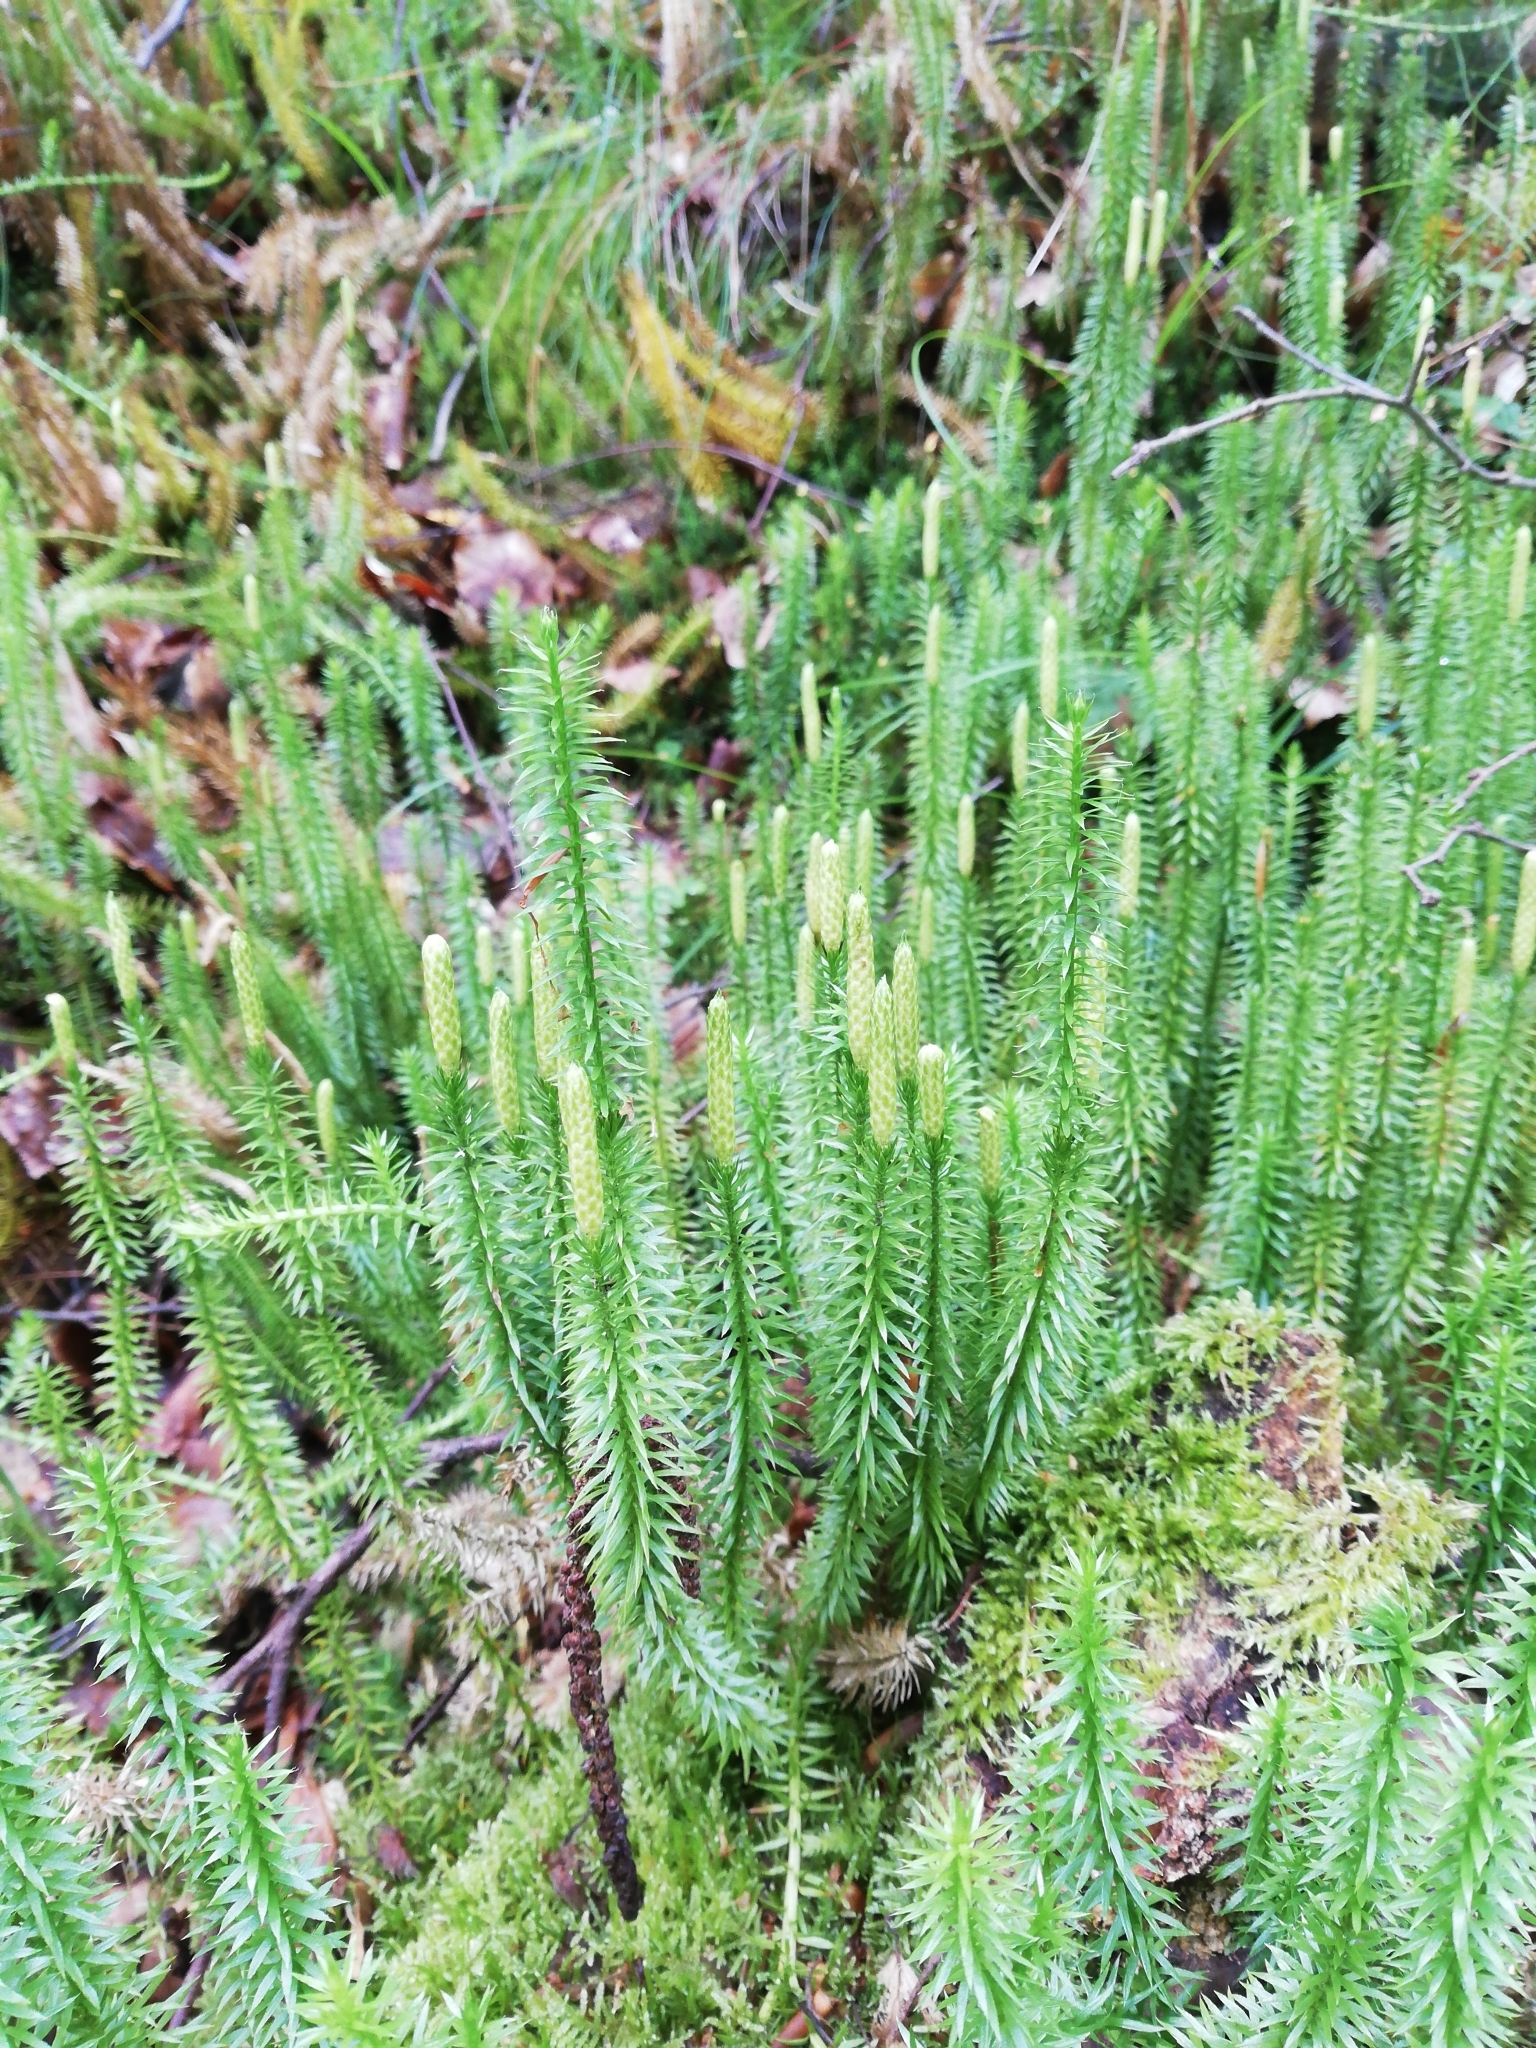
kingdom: Plantae
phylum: Tracheophyta
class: Lycopodiopsida
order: Lycopodiales
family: Lycopodiaceae
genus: Spinulum
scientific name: Spinulum annotinum
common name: Interrupted club-moss
